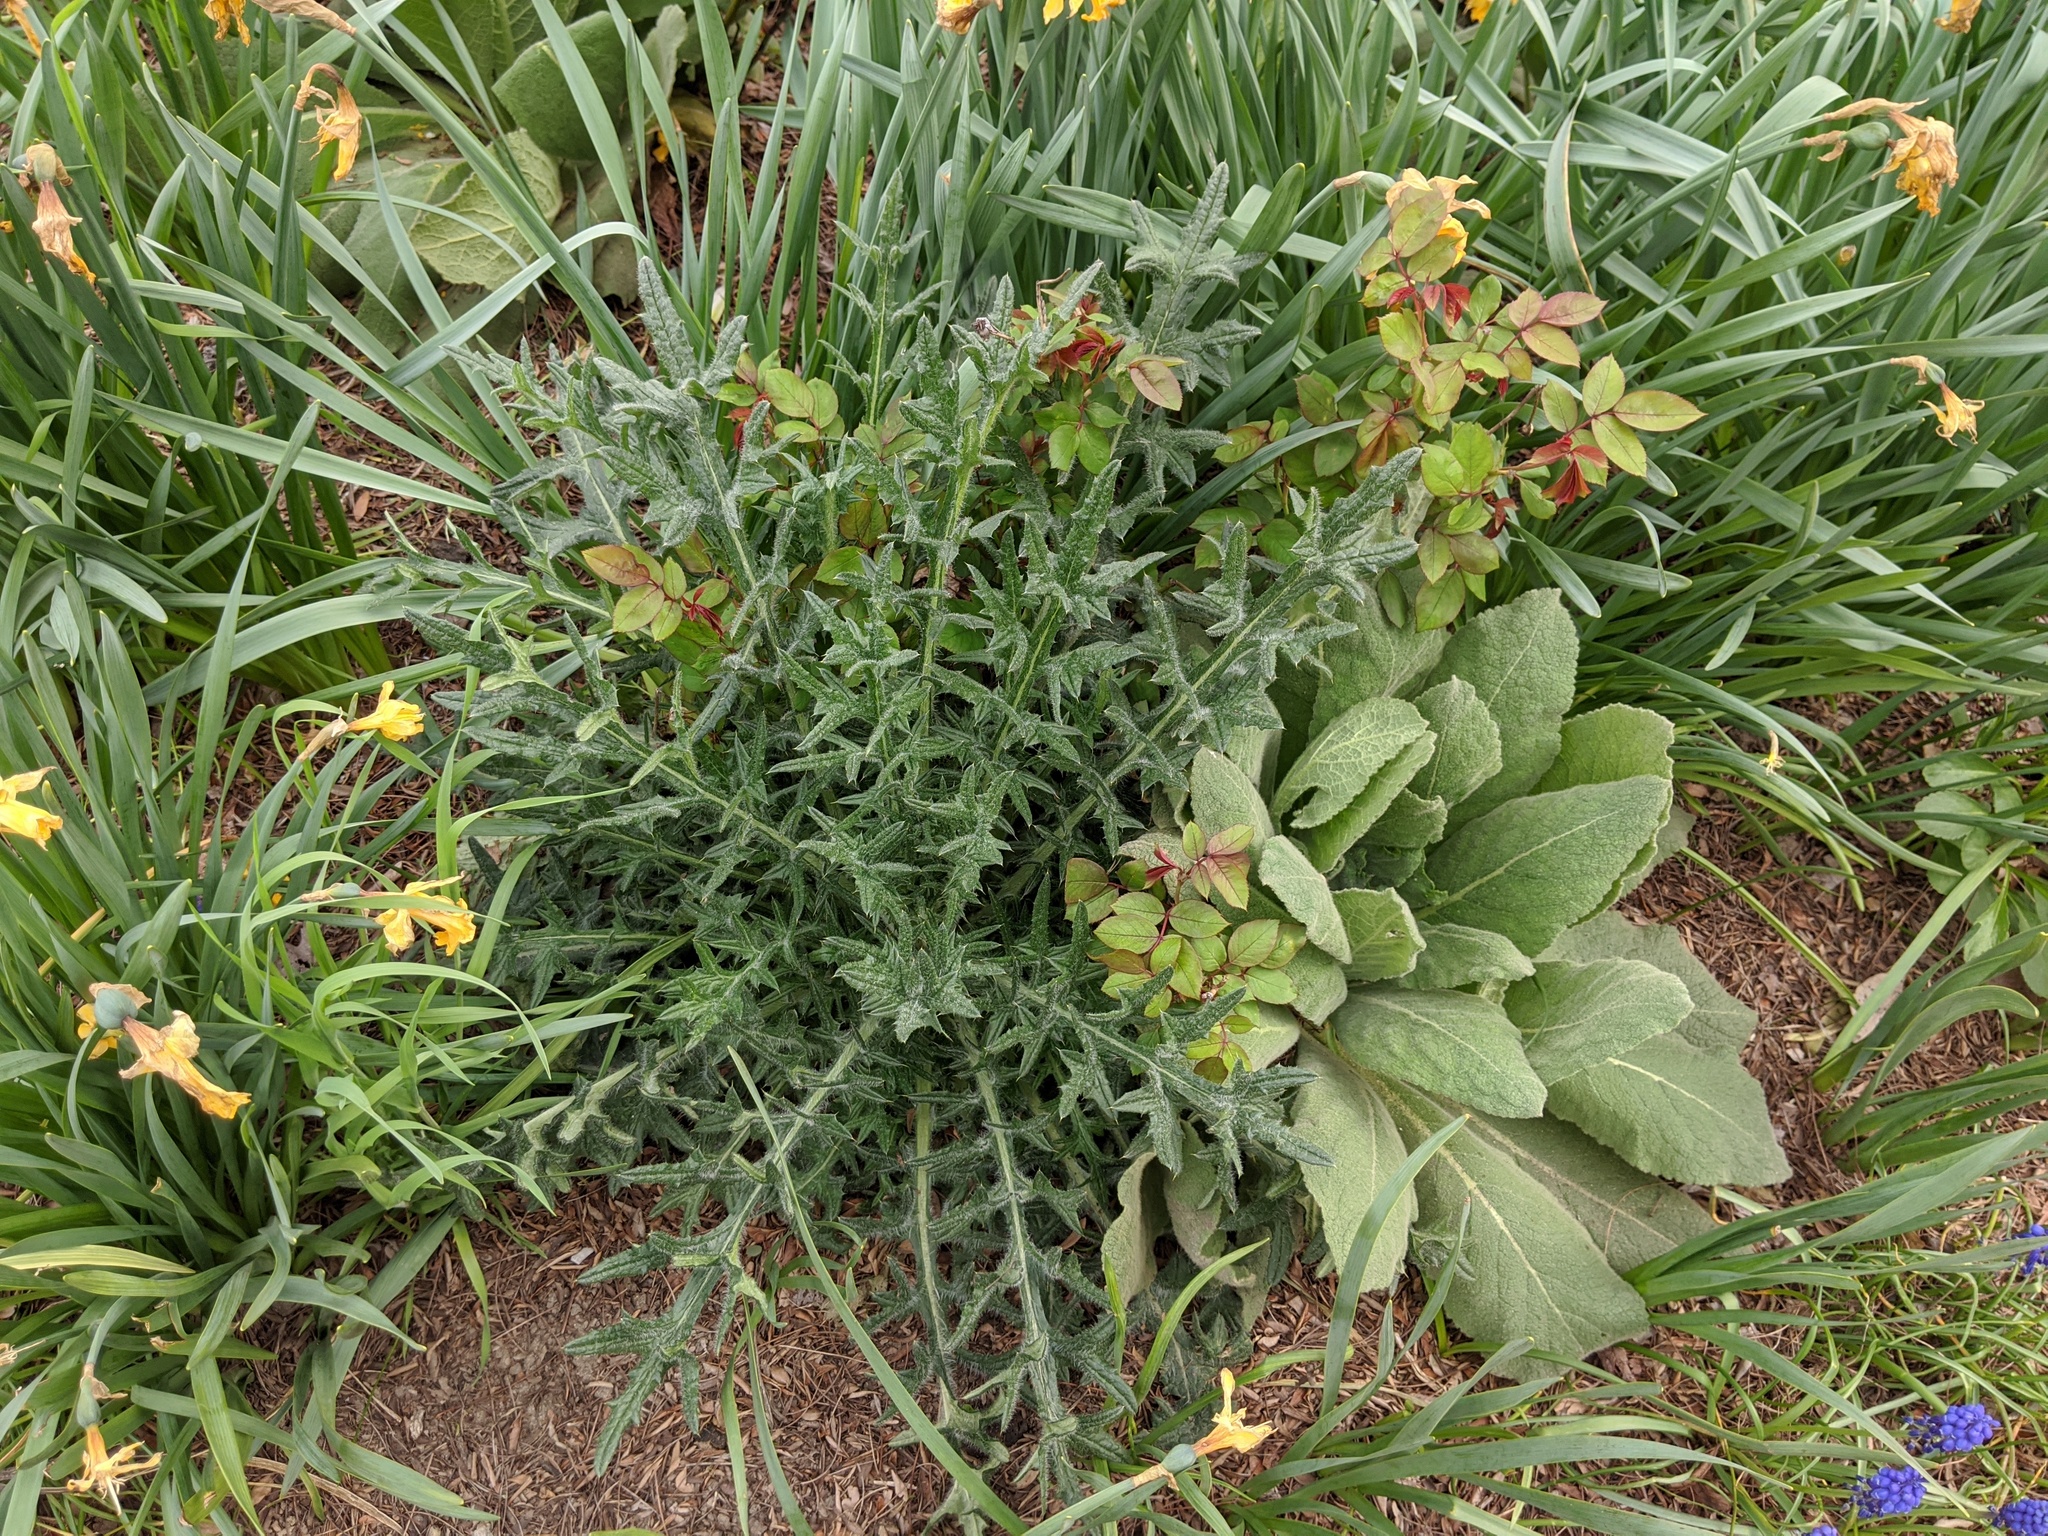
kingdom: Plantae
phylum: Tracheophyta
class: Magnoliopsida
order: Asterales
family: Asteraceae
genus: Cirsium
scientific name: Cirsium vulgare
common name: Bull thistle
